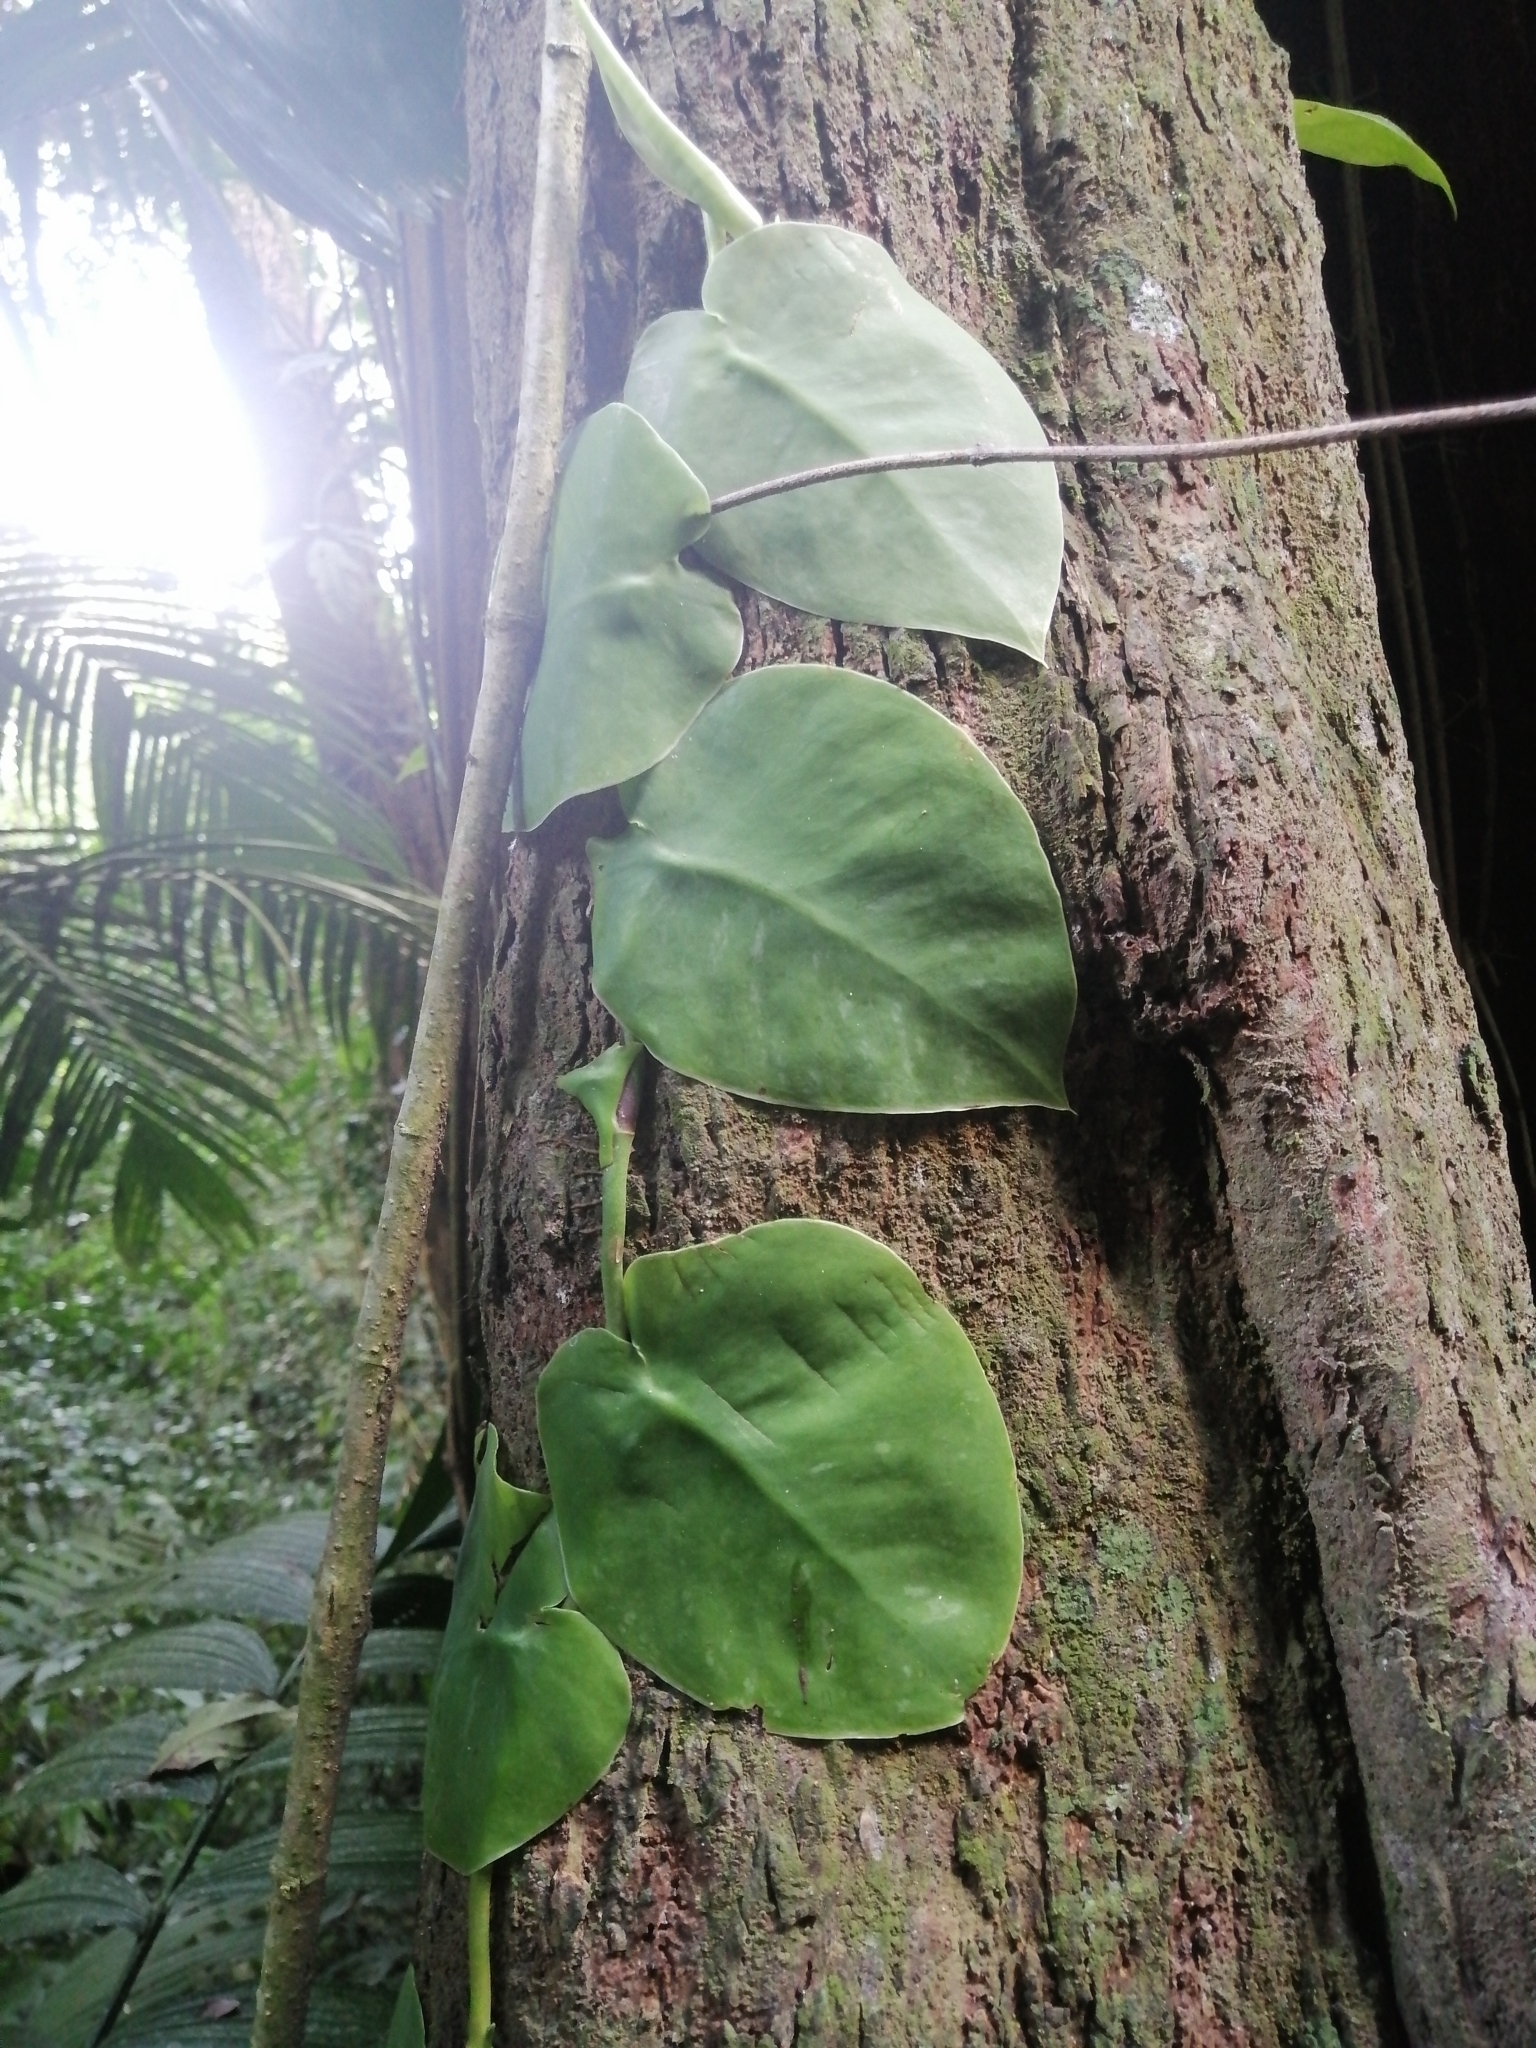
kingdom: Plantae
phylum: Tracheophyta
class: Liliopsida
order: Alismatales
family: Araceae
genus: Monstera
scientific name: Monstera tuberculata
